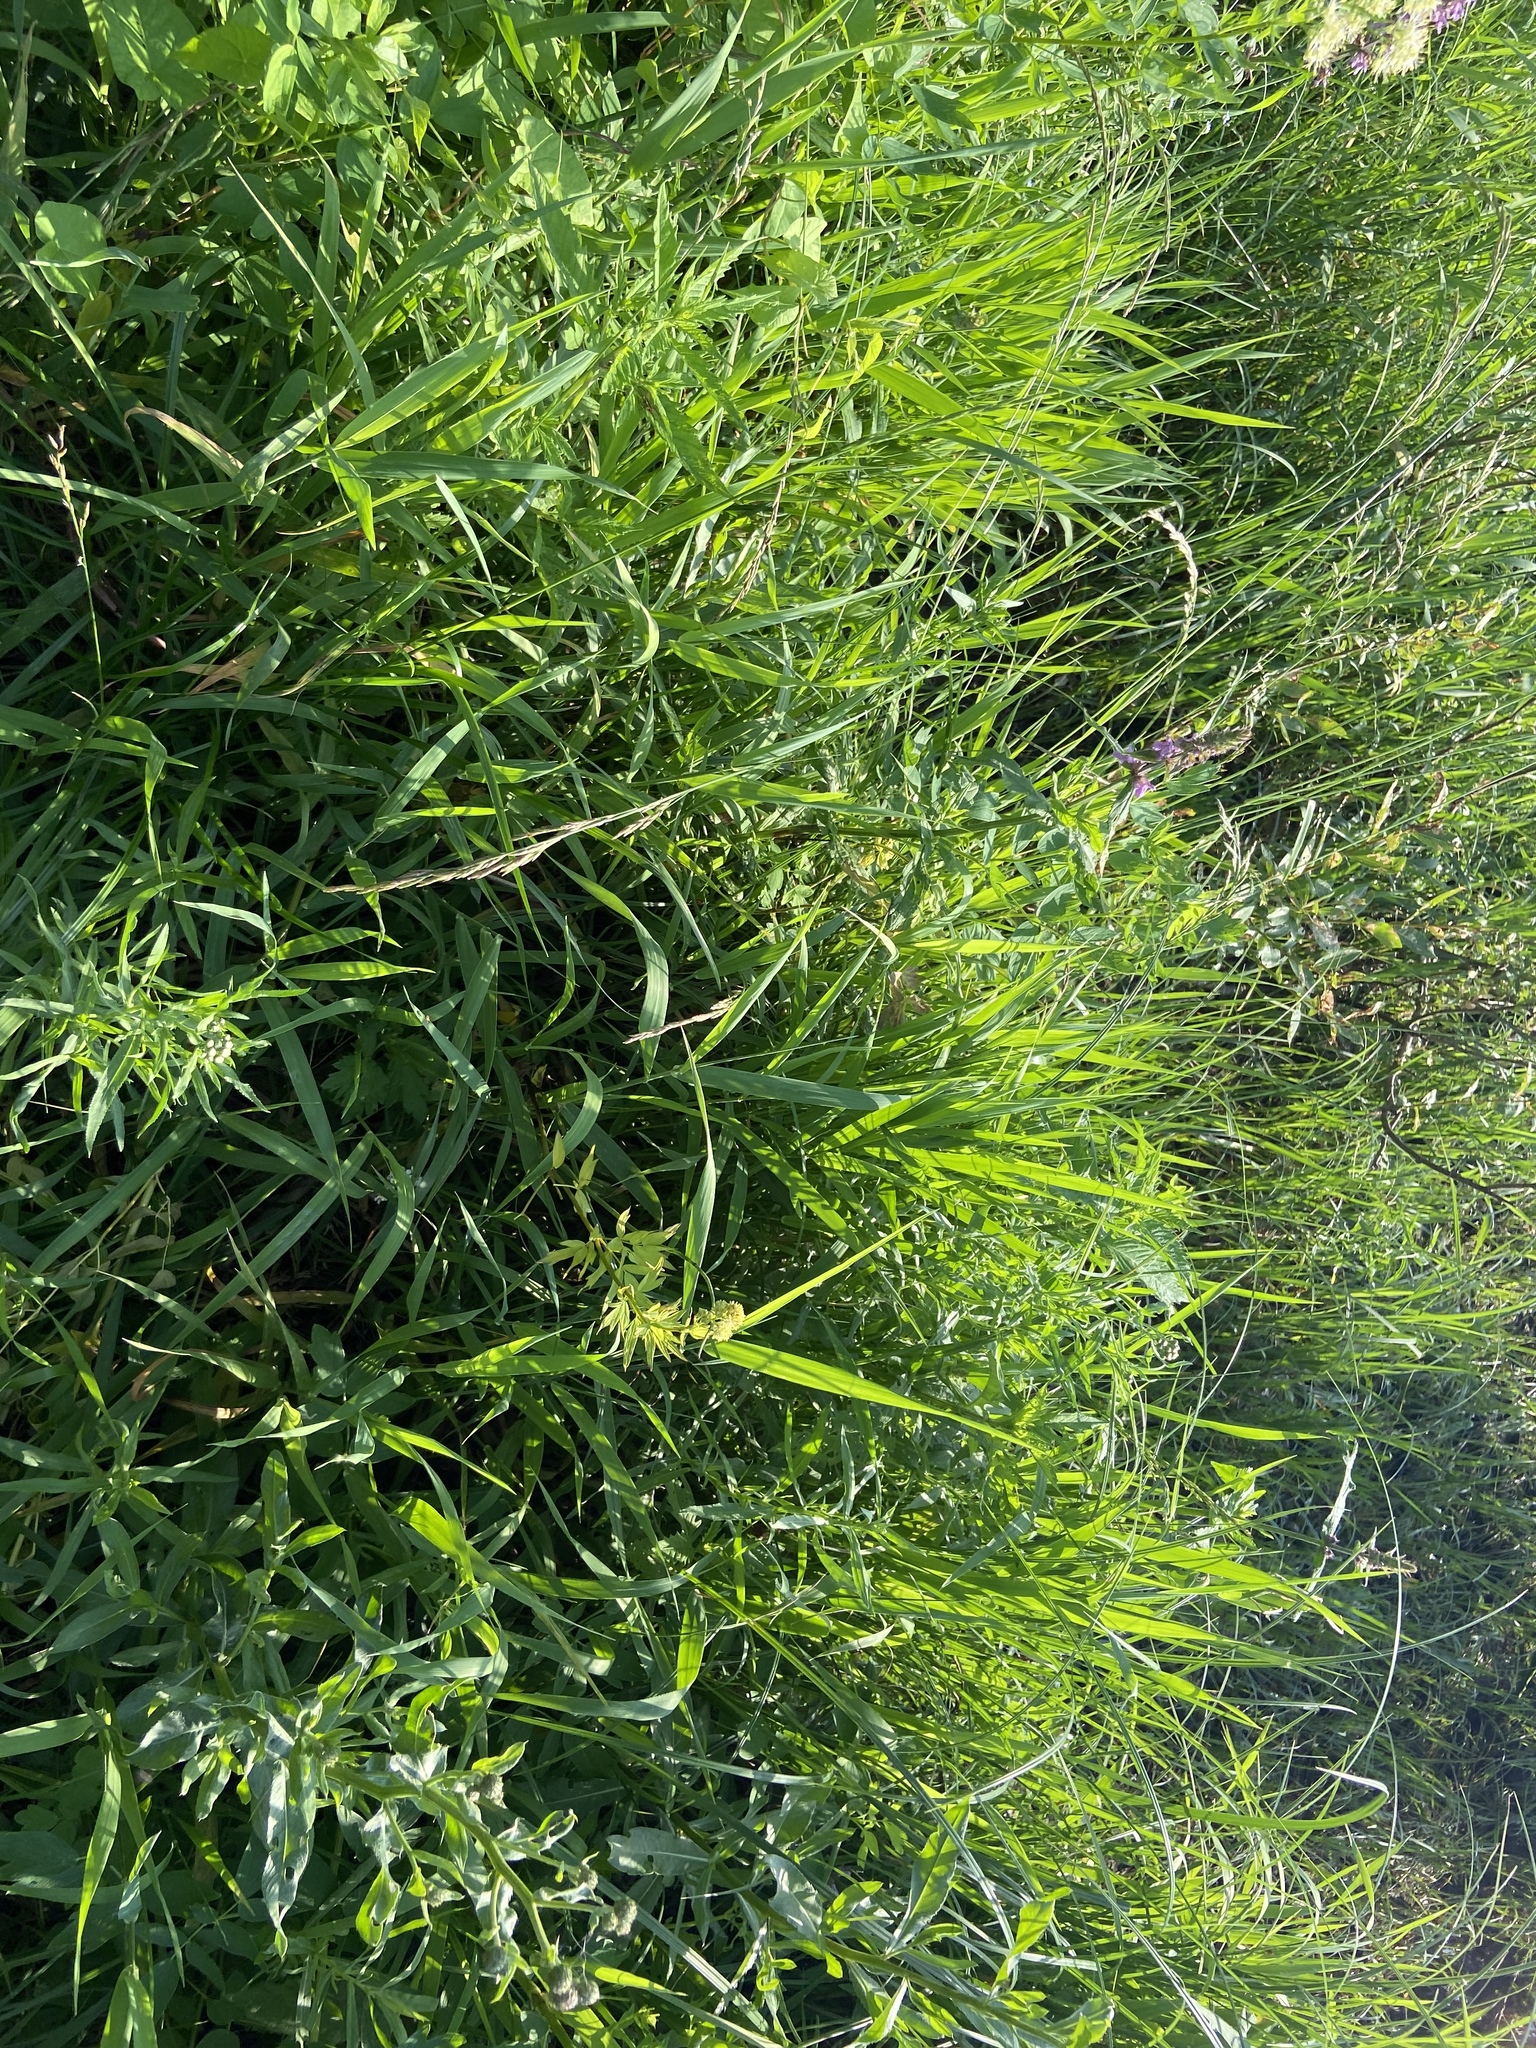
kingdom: Plantae
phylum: Tracheophyta
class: Liliopsida
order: Poales
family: Poaceae
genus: Phragmites
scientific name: Phragmites australis
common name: Common reed
